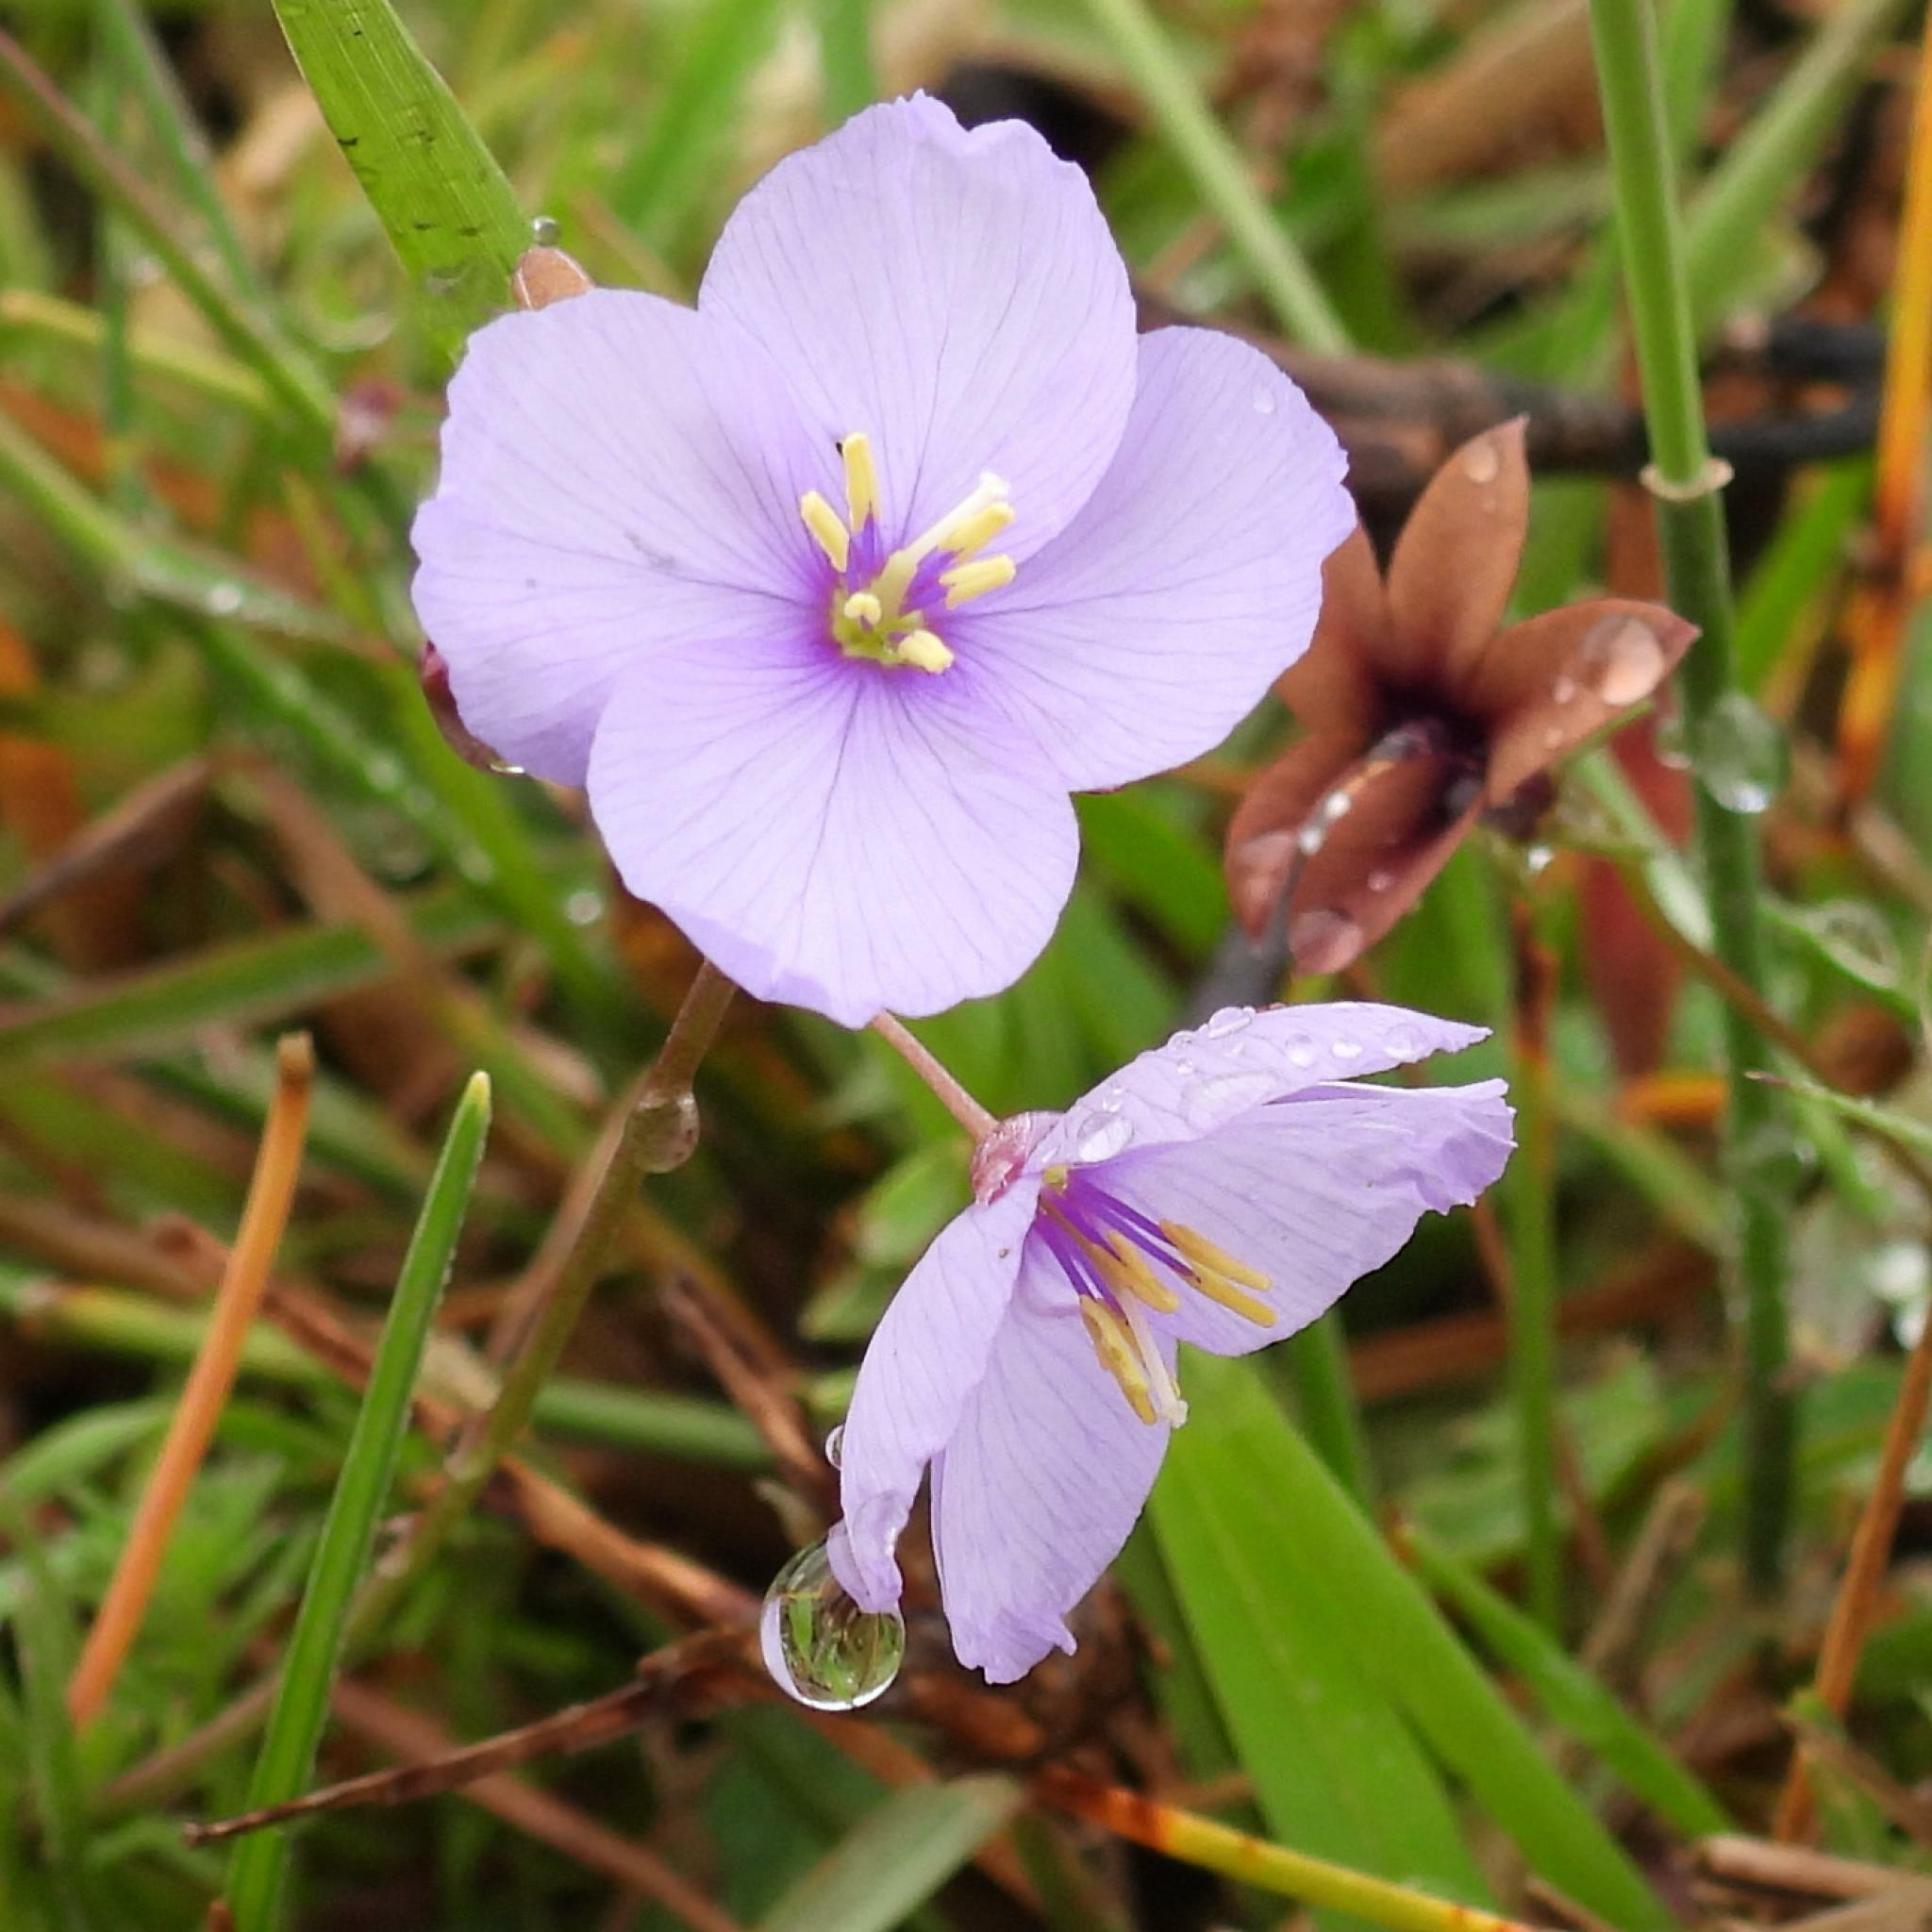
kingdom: Plantae
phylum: Tracheophyta
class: Magnoliopsida
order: Brassicales
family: Brassicaceae
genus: Heliophila
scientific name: Heliophila subulata
